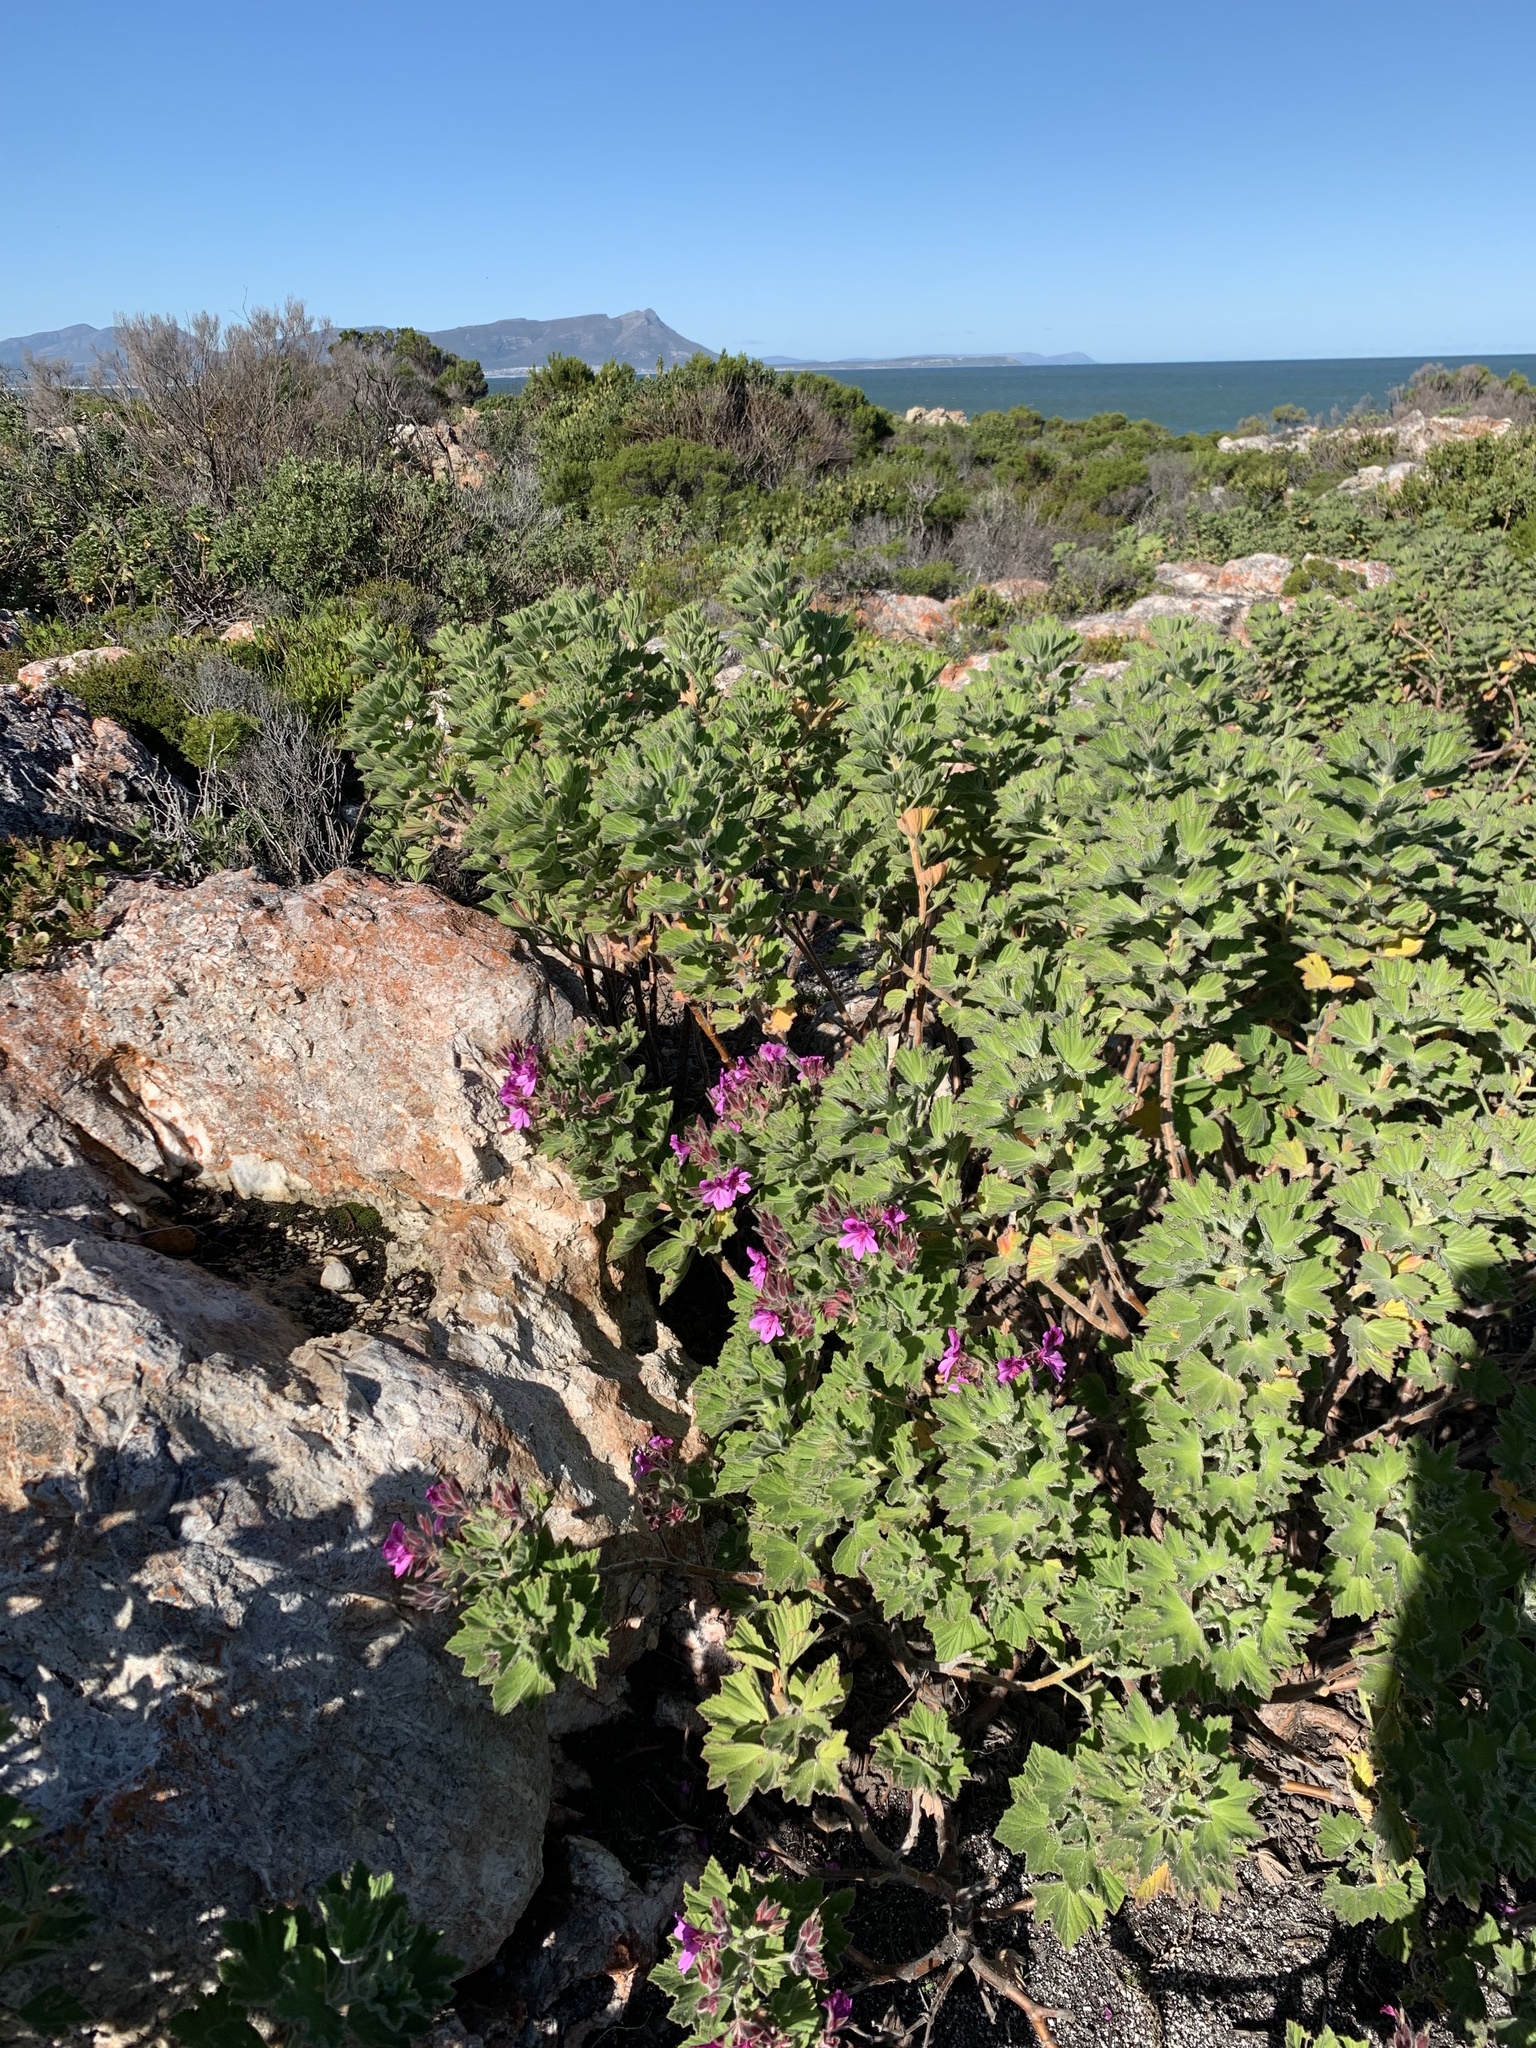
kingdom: Plantae
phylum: Tracheophyta
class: Magnoliopsida
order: Geraniales
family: Geraniaceae
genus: Pelargonium
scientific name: Pelargonium cucullatum
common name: Tree pelargonium
